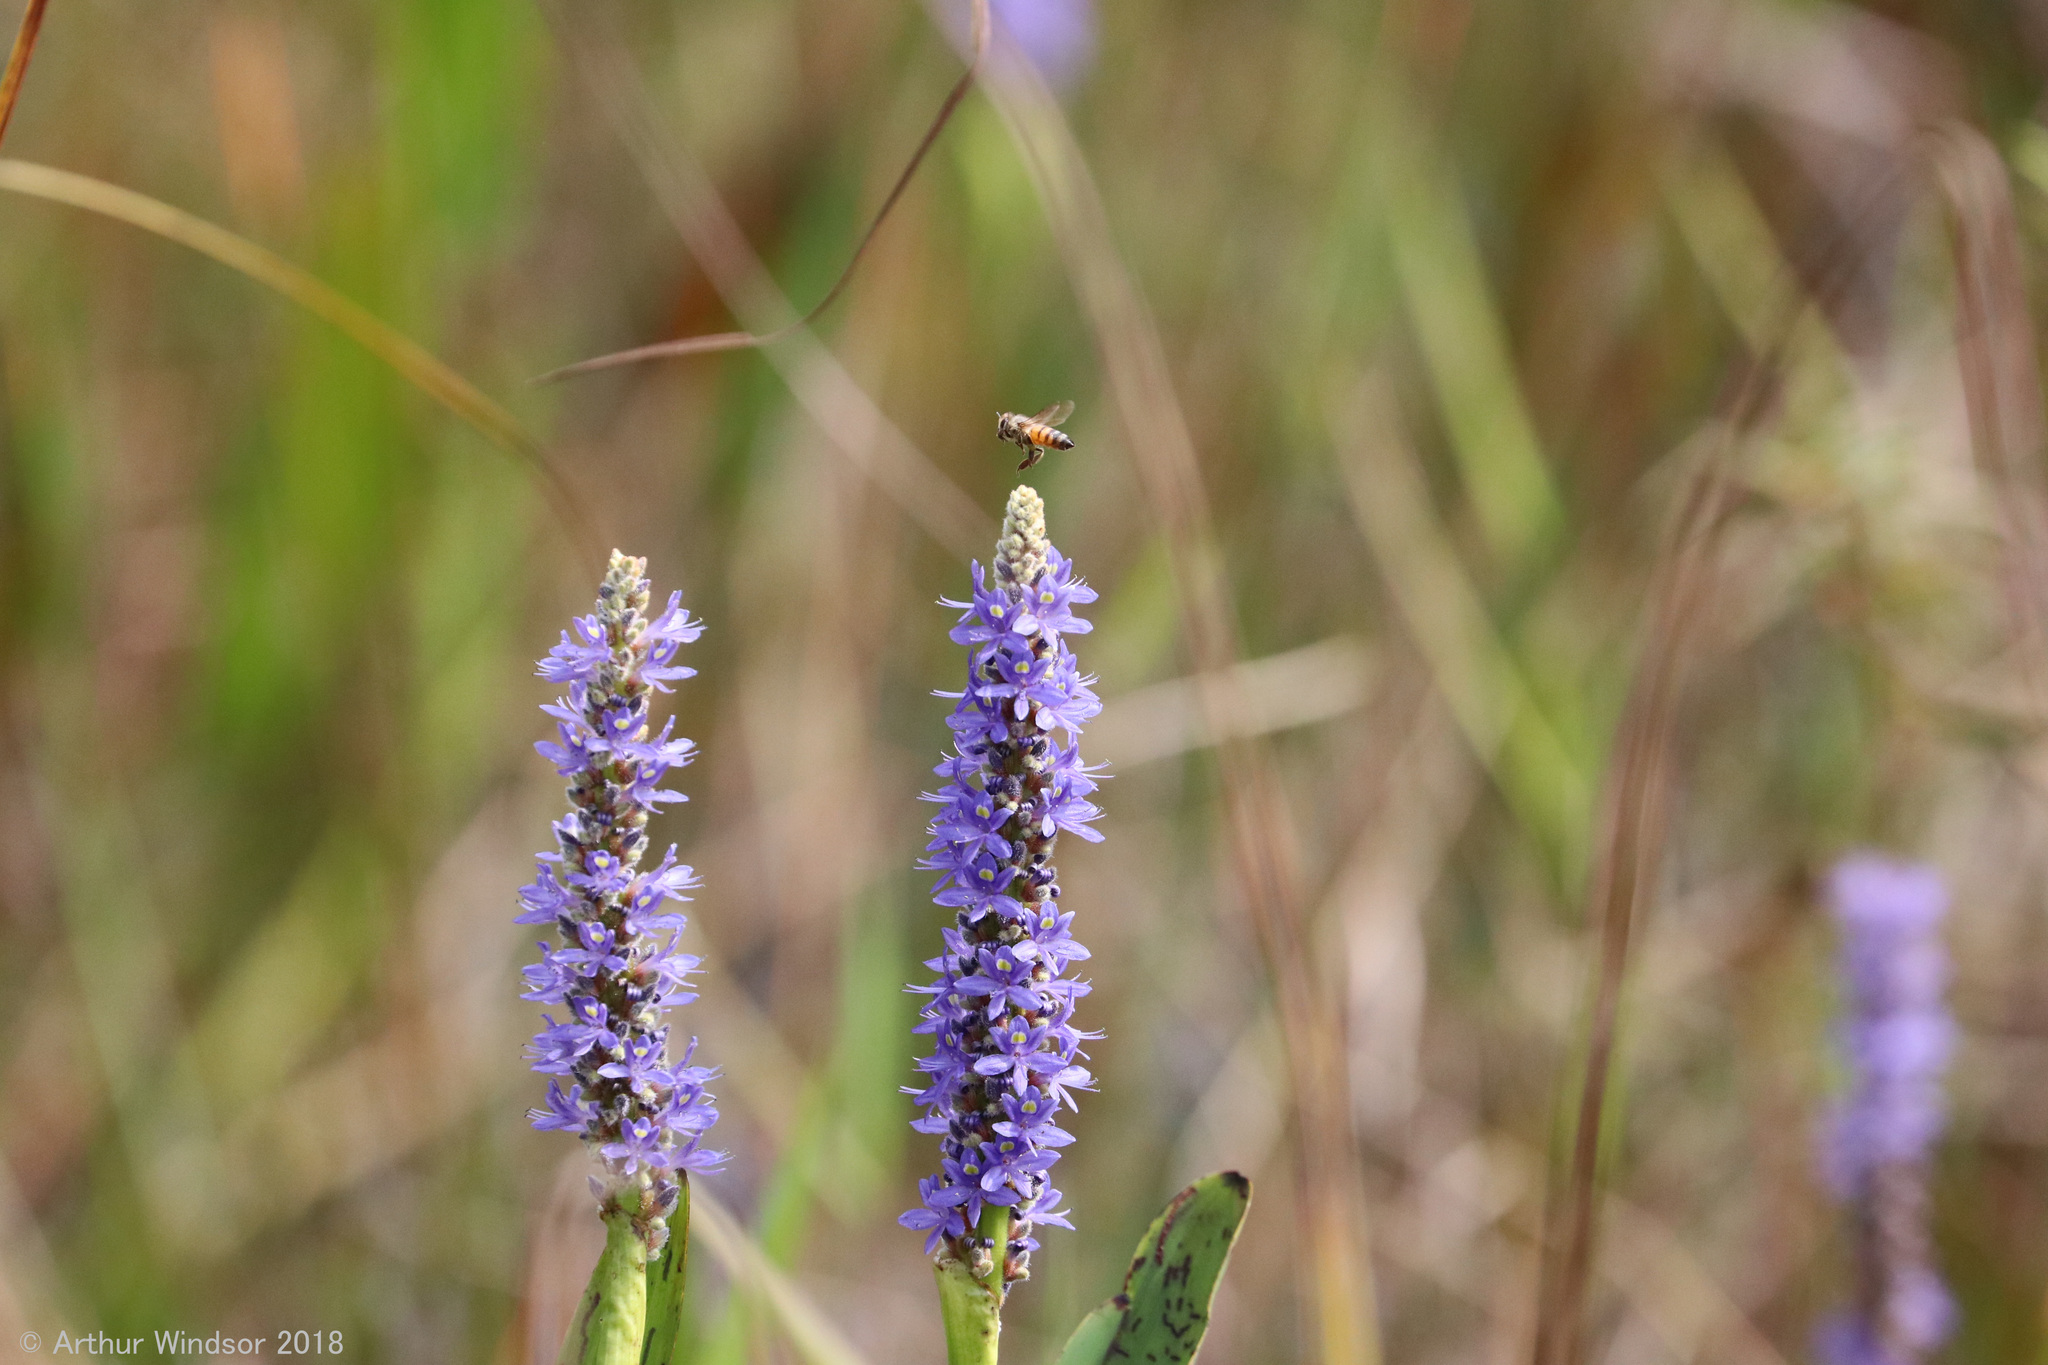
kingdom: Animalia
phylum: Arthropoda
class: Insecta
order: Hymenoptera
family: Apidae
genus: Apis
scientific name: Apis mellifera
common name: Honey bee
